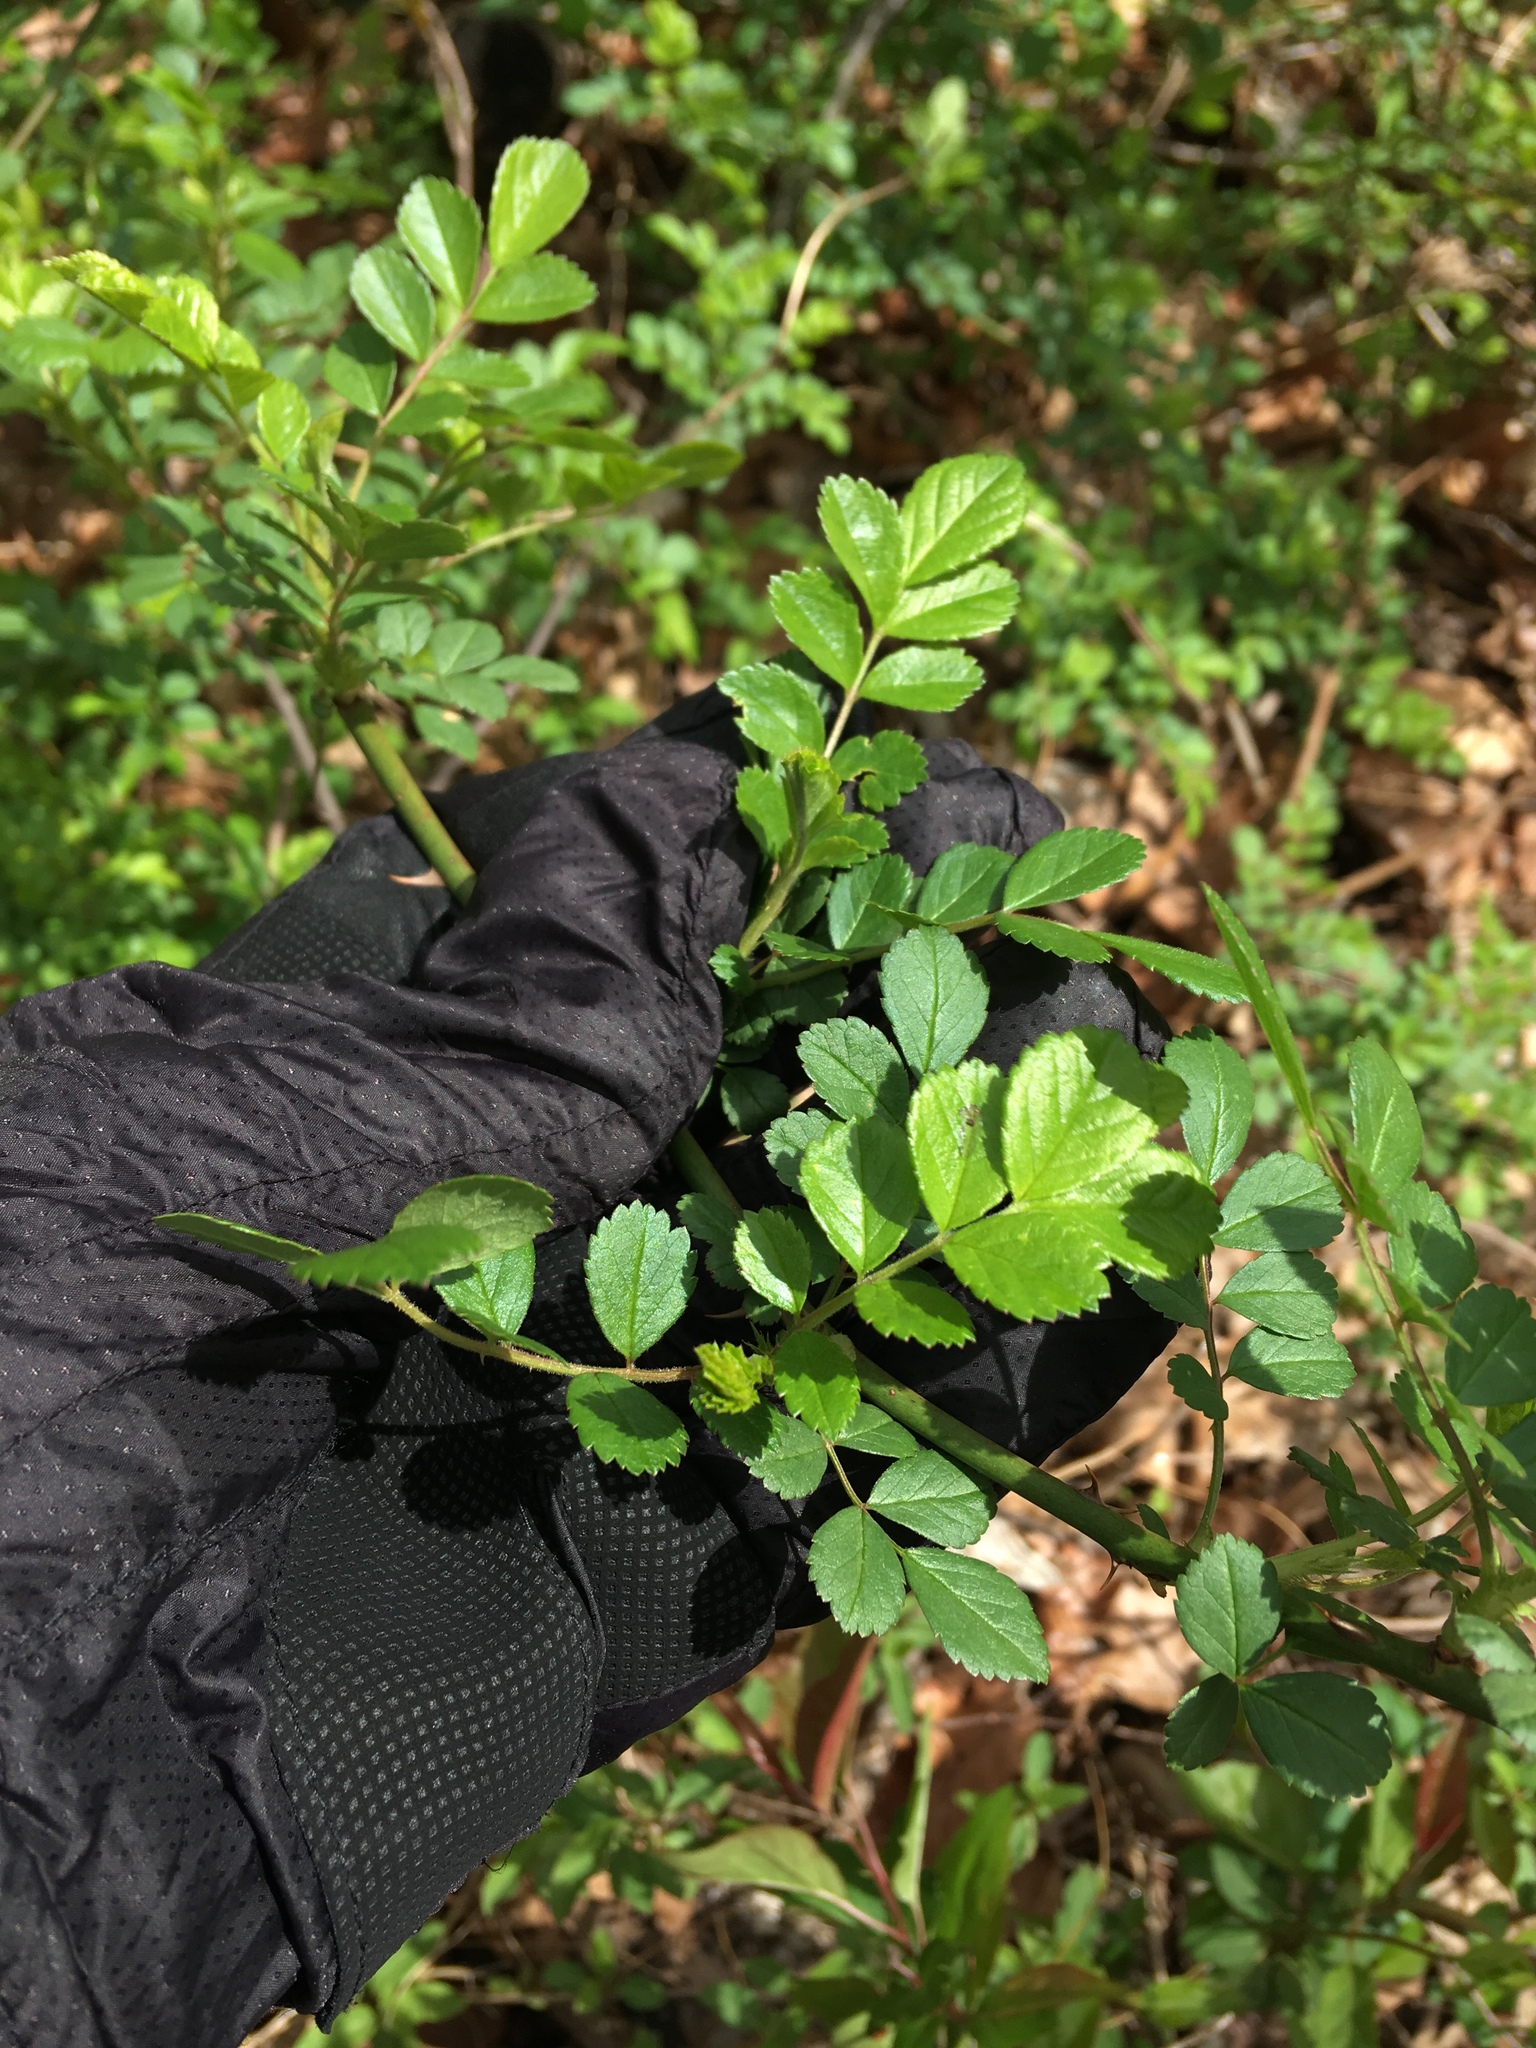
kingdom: Plantae
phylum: Tracheophyta
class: Magnoliopsida
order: Rosales
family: Rosaceae
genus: Rosa
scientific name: Rosa multiflora
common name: Multiflora rose
